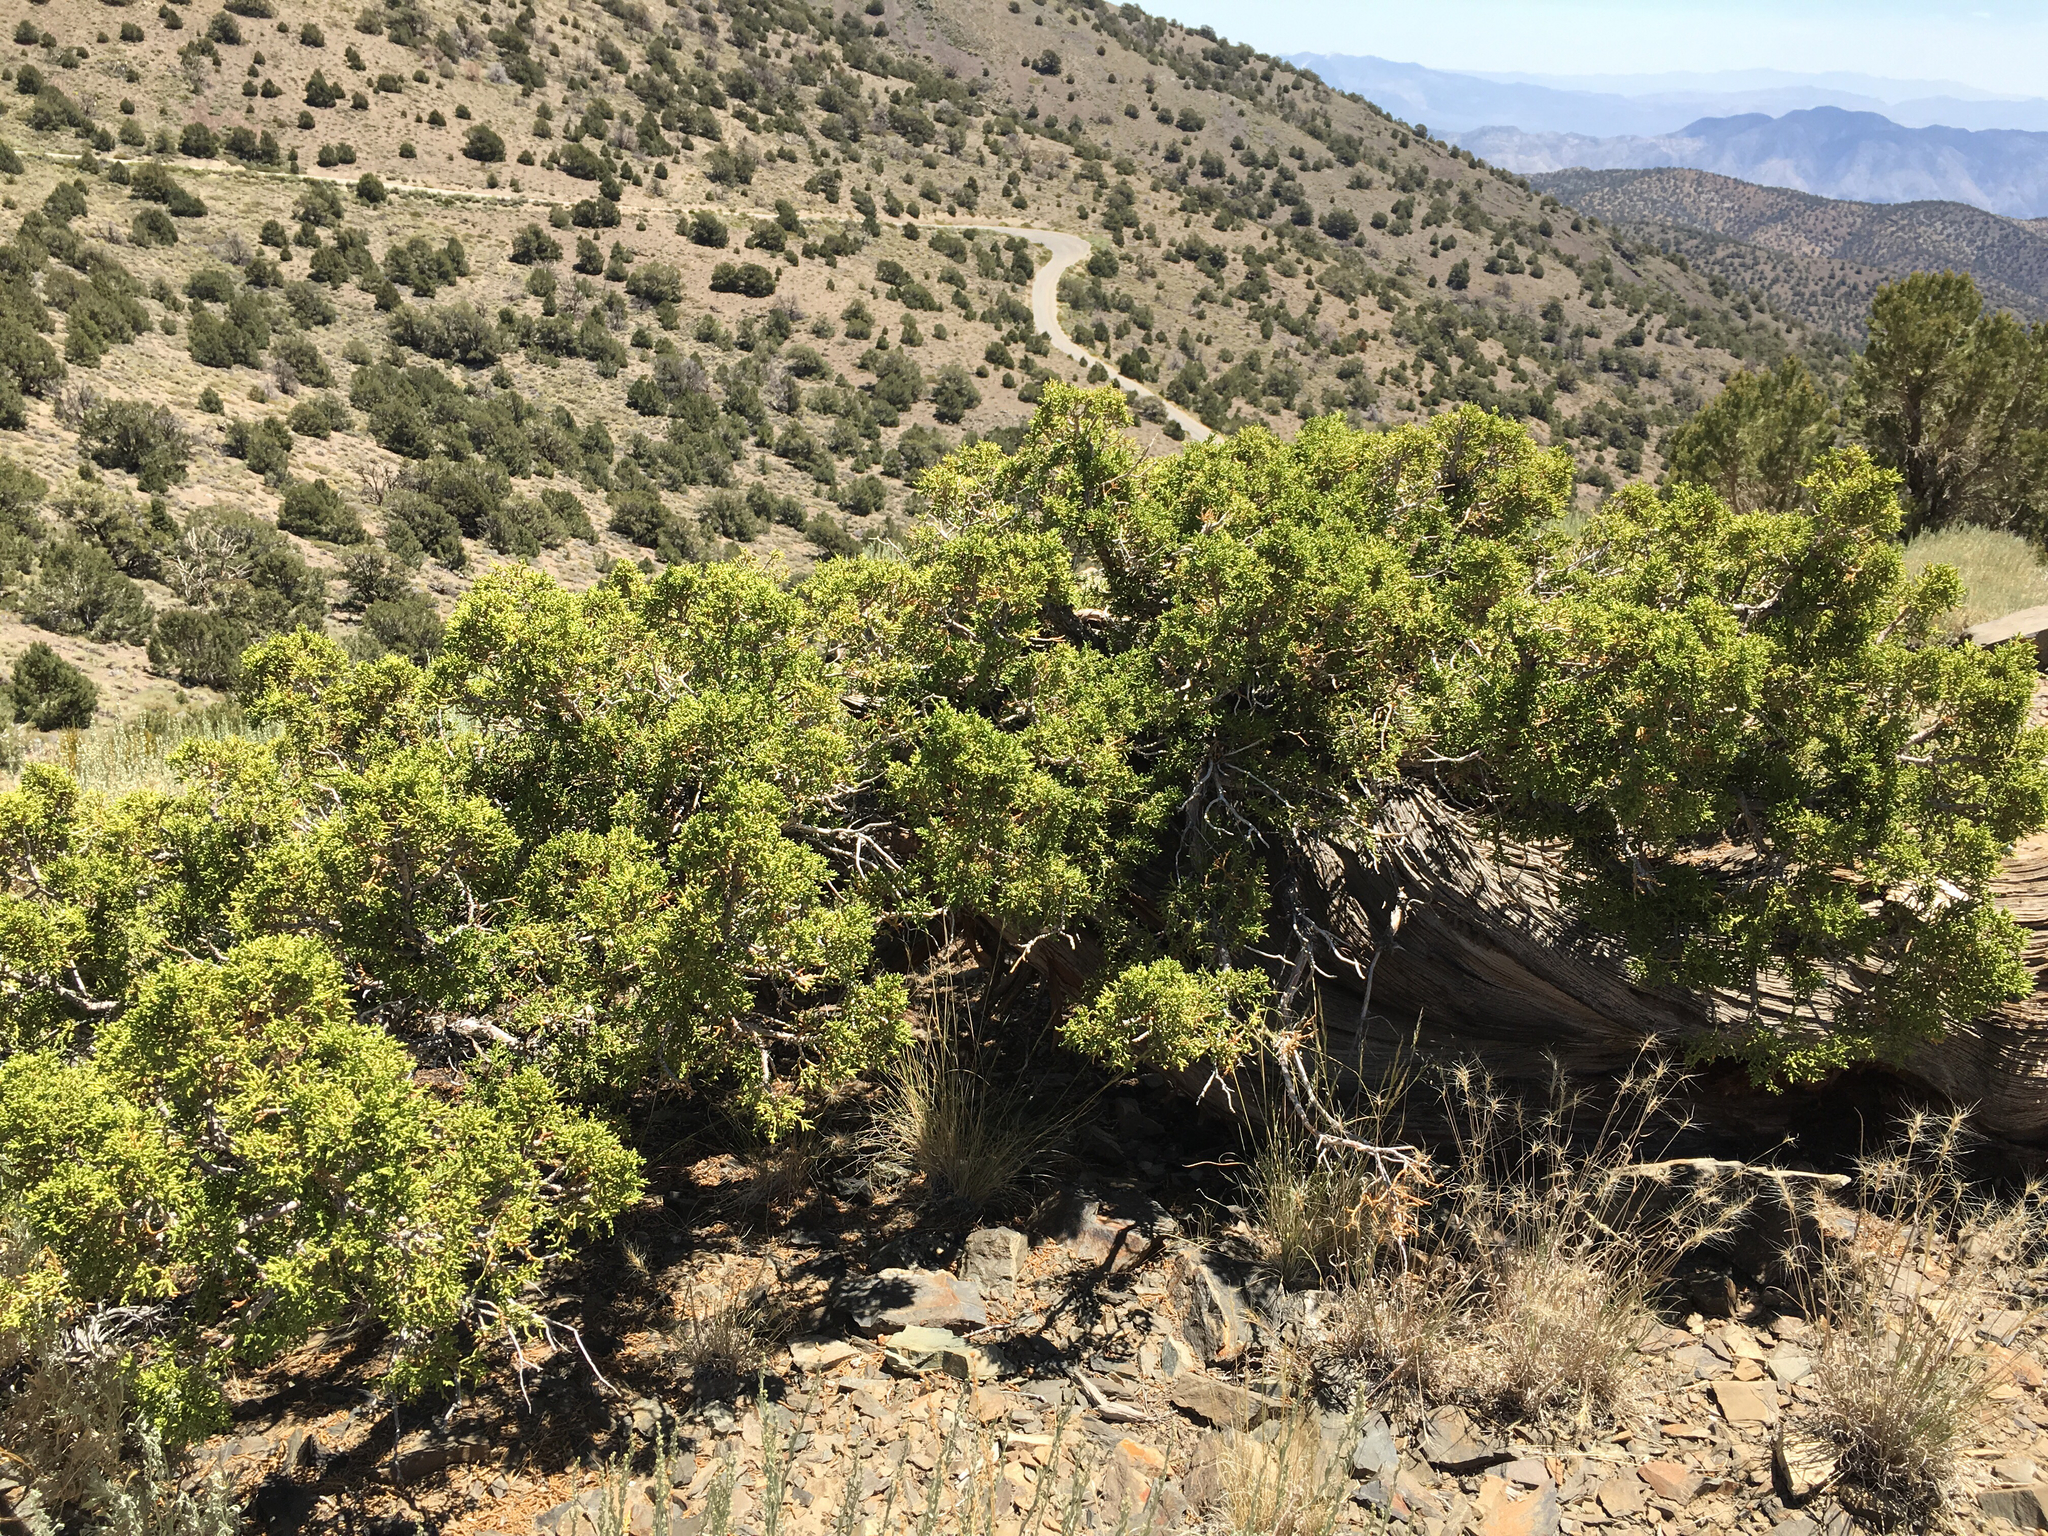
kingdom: Plantae
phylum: Tracheophyta
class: Pinopsida
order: Pinales
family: Cupressaceae
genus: Juniperus
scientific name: Juniperus osteosperma
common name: Utah juniper
